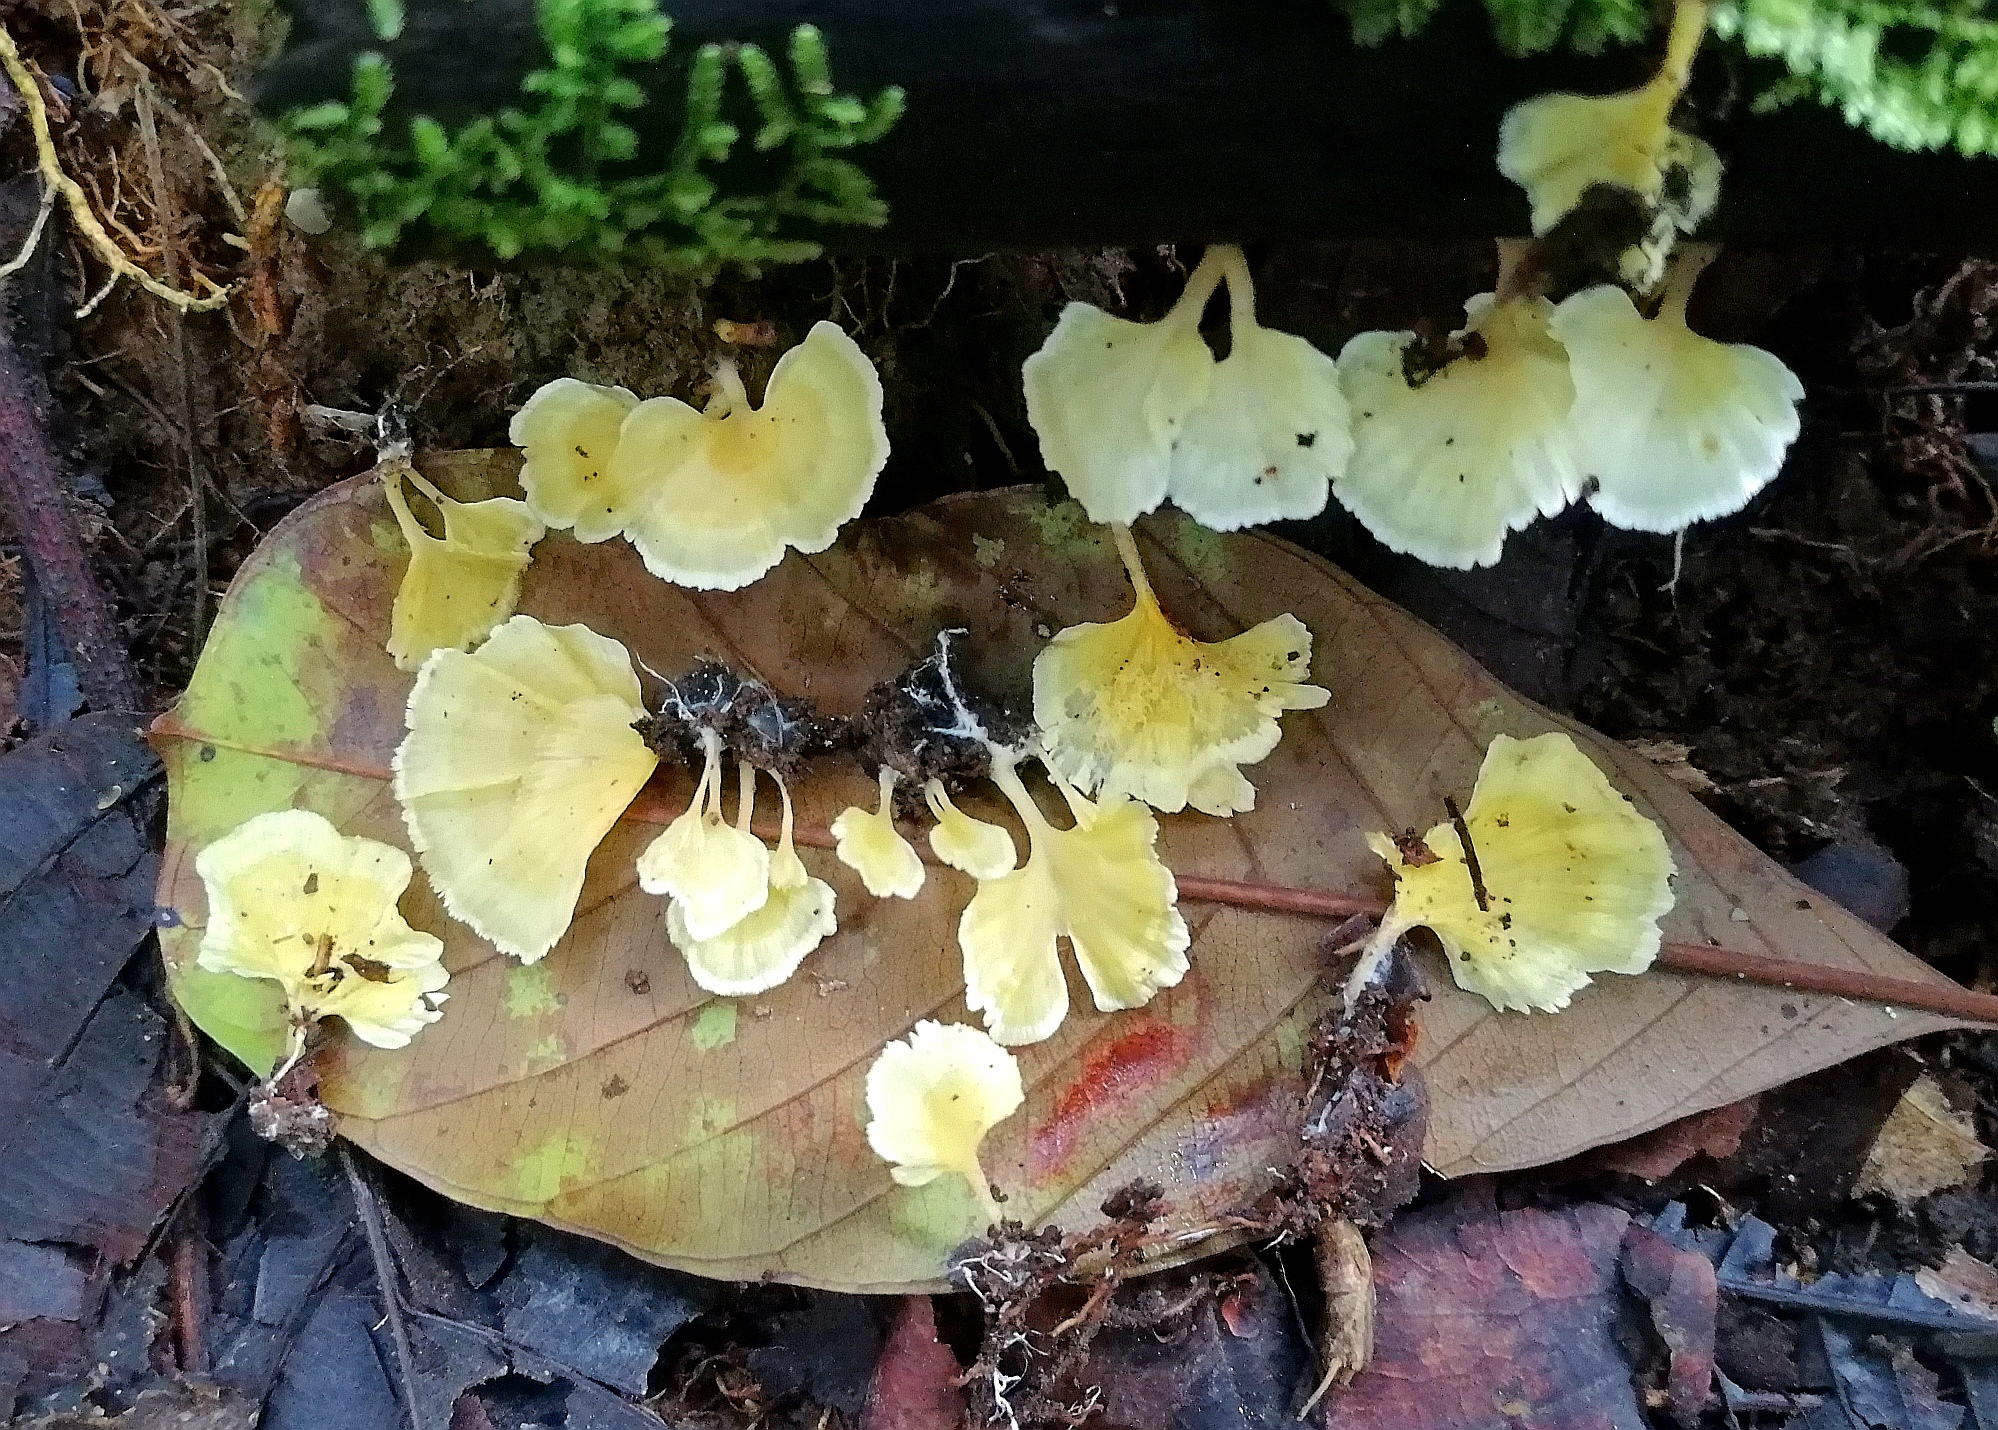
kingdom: Fungi
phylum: Basidiomycota
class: Agaricomycetes
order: Hymenochaetales
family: Rickenellaceae
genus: Cotylidia
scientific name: Cotylidia aurantiaca
